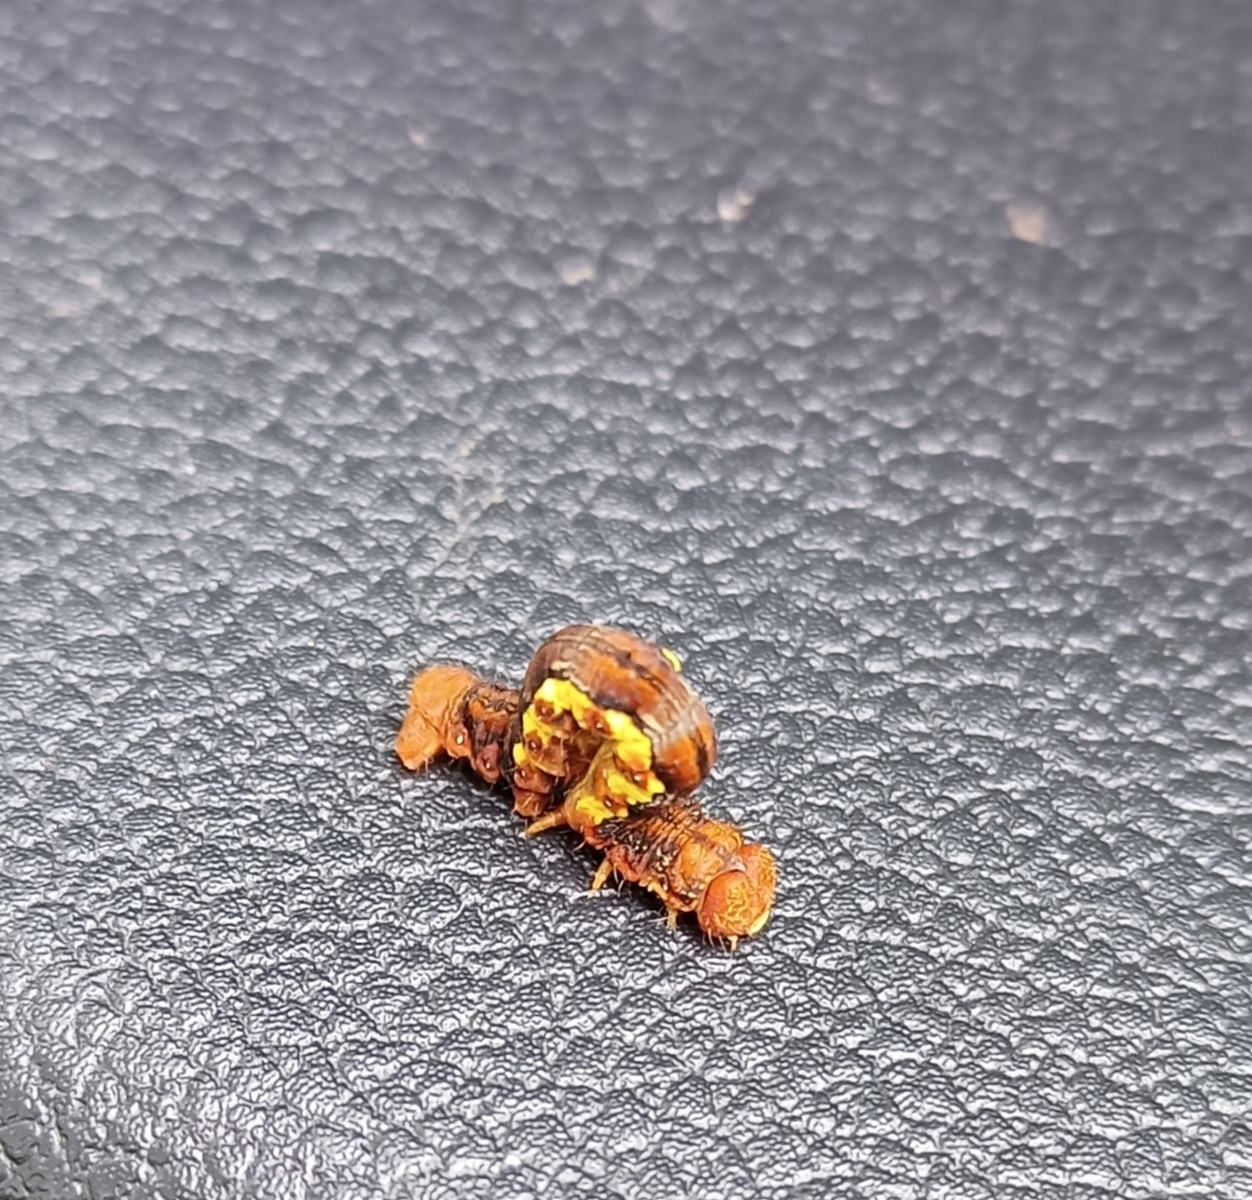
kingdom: Animalia
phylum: Arthropoda
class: Insecta
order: Lepidoptera
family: Geometridae
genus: Erannis
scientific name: Erannis defoliaria
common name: Mottled umber
